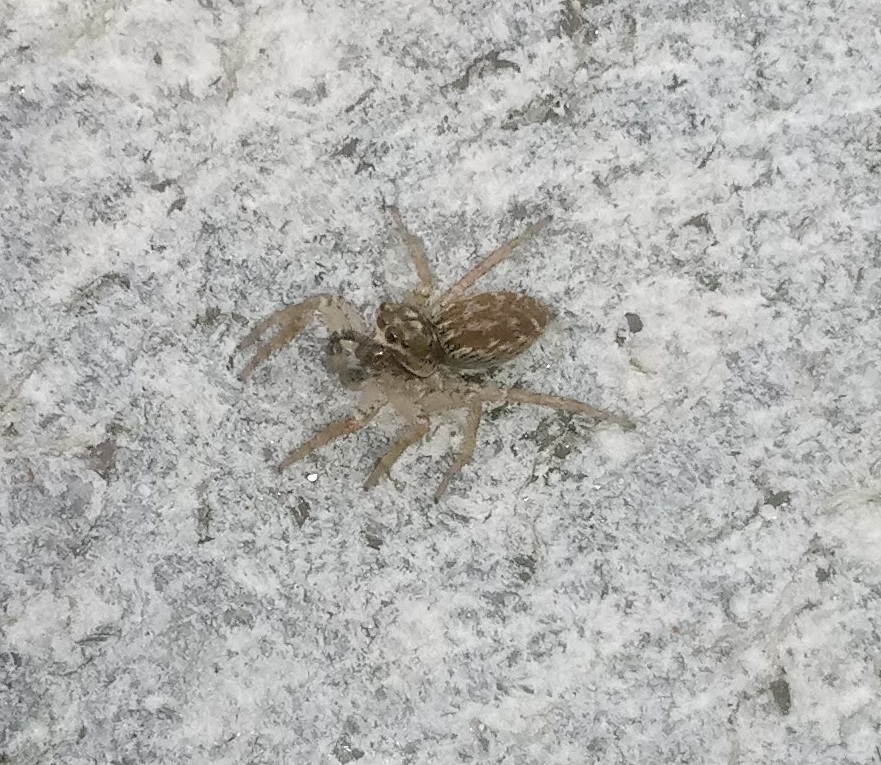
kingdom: Animalia
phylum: Arthropoda
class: Arachnida
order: Araneae
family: Salticidae
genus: Maevia
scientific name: Maevia inclemens
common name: Dimorphic jumper
